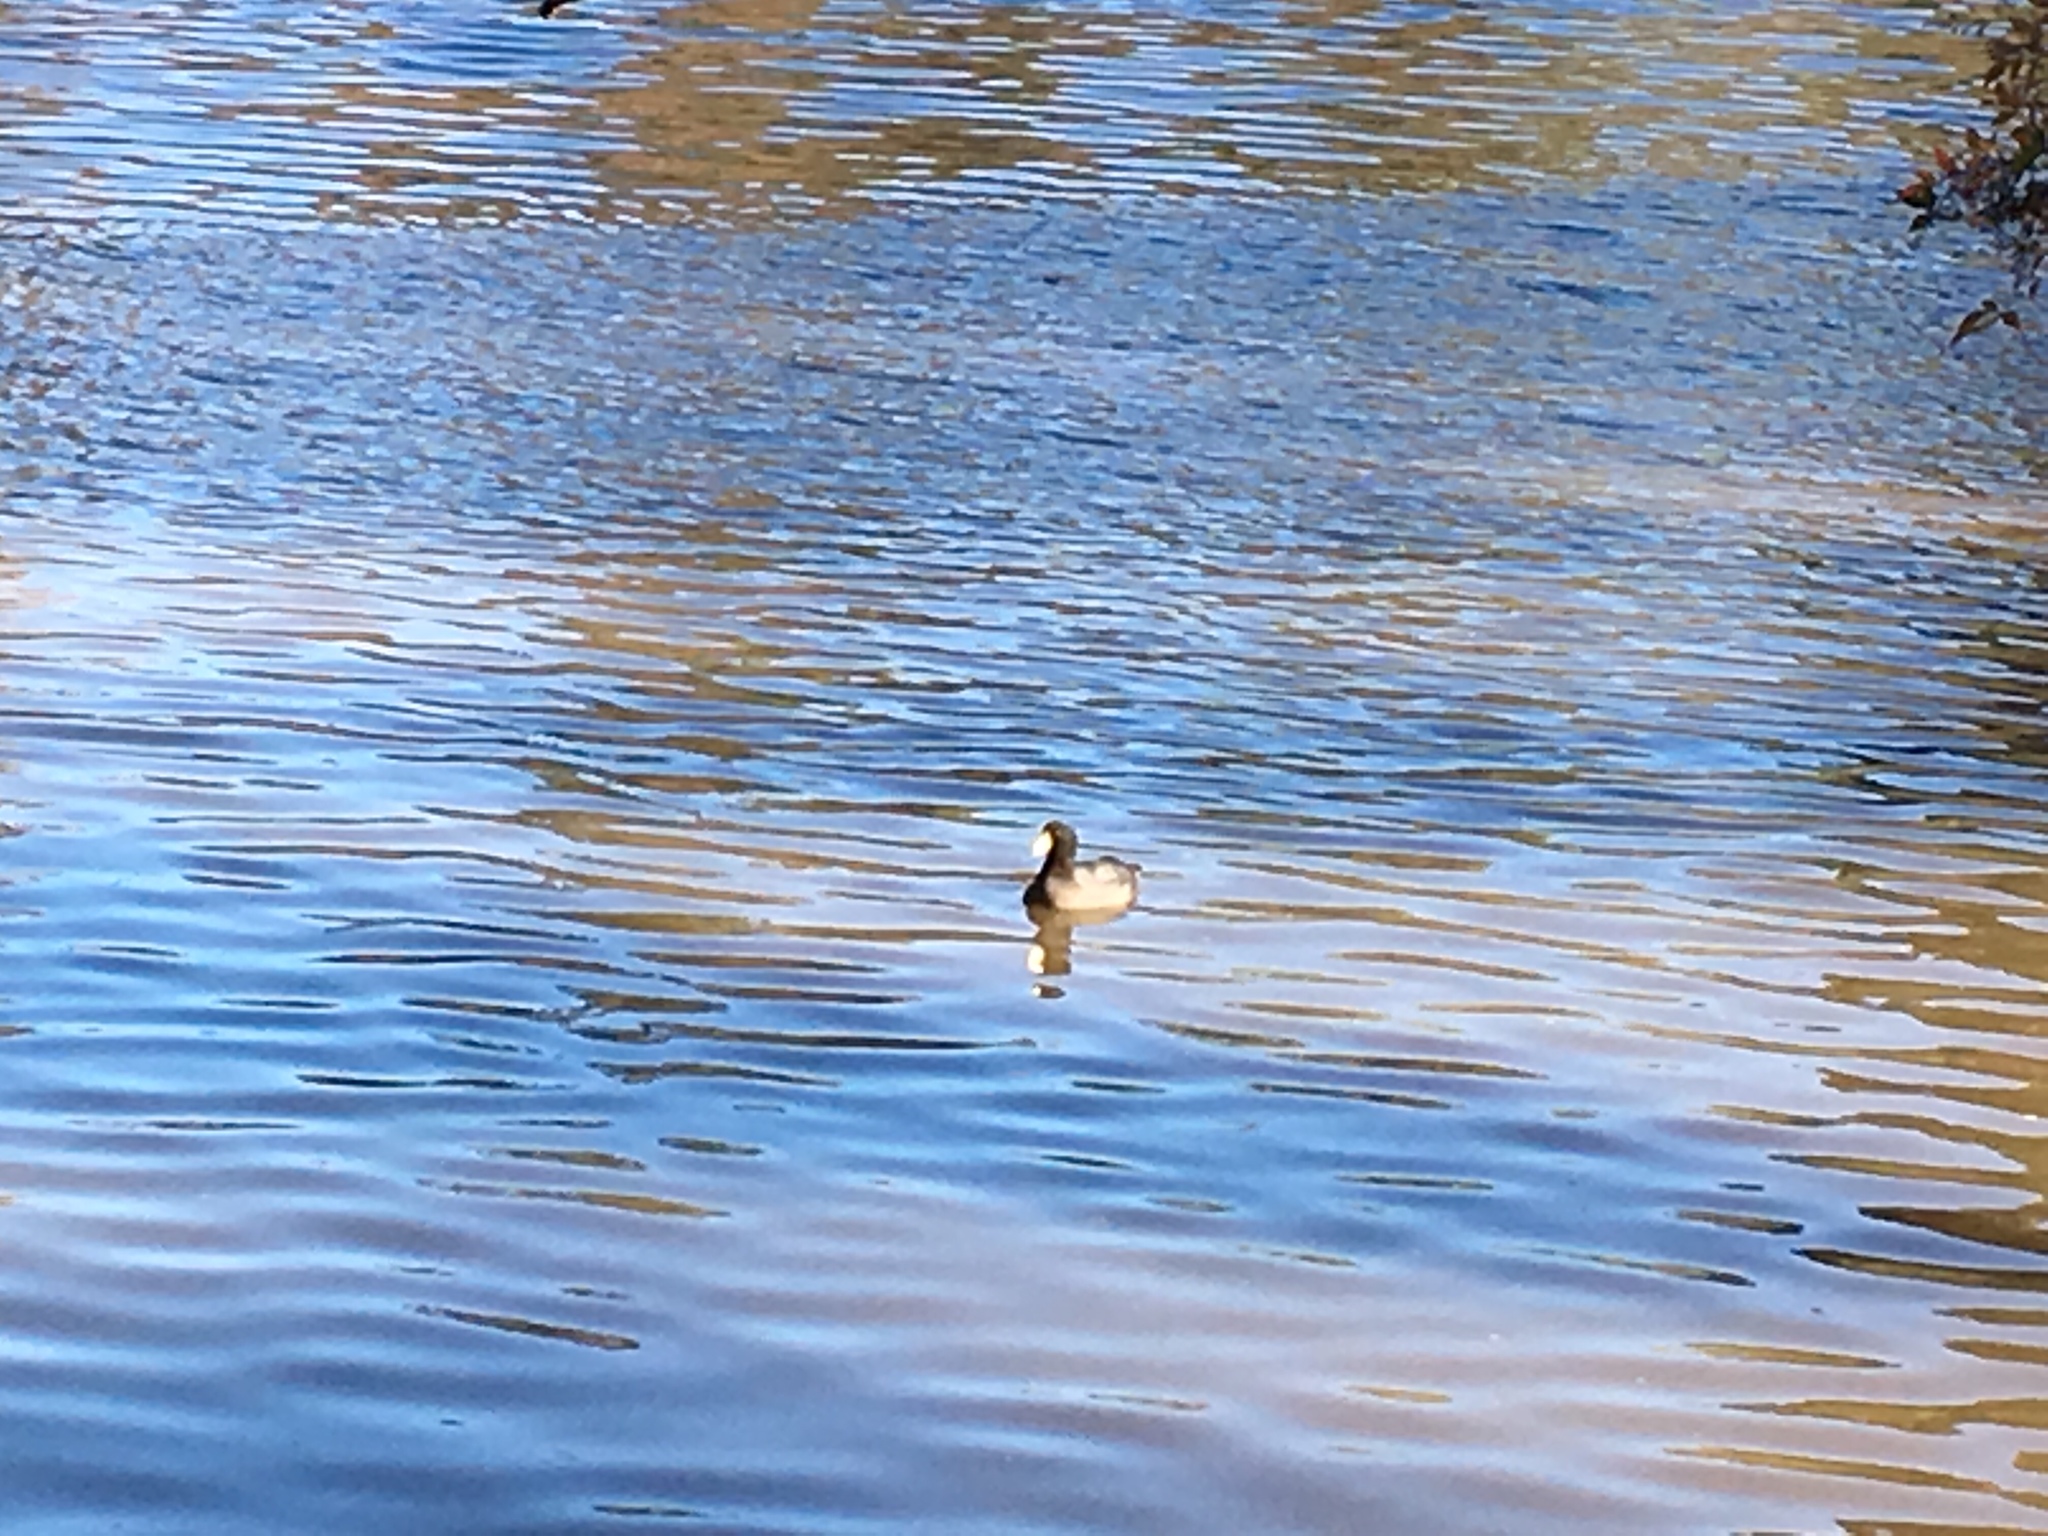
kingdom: Animalia
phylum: Chordata
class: Aves
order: Gruiformes
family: Rallidae
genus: Fulica
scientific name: Fulica americana
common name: American coot
